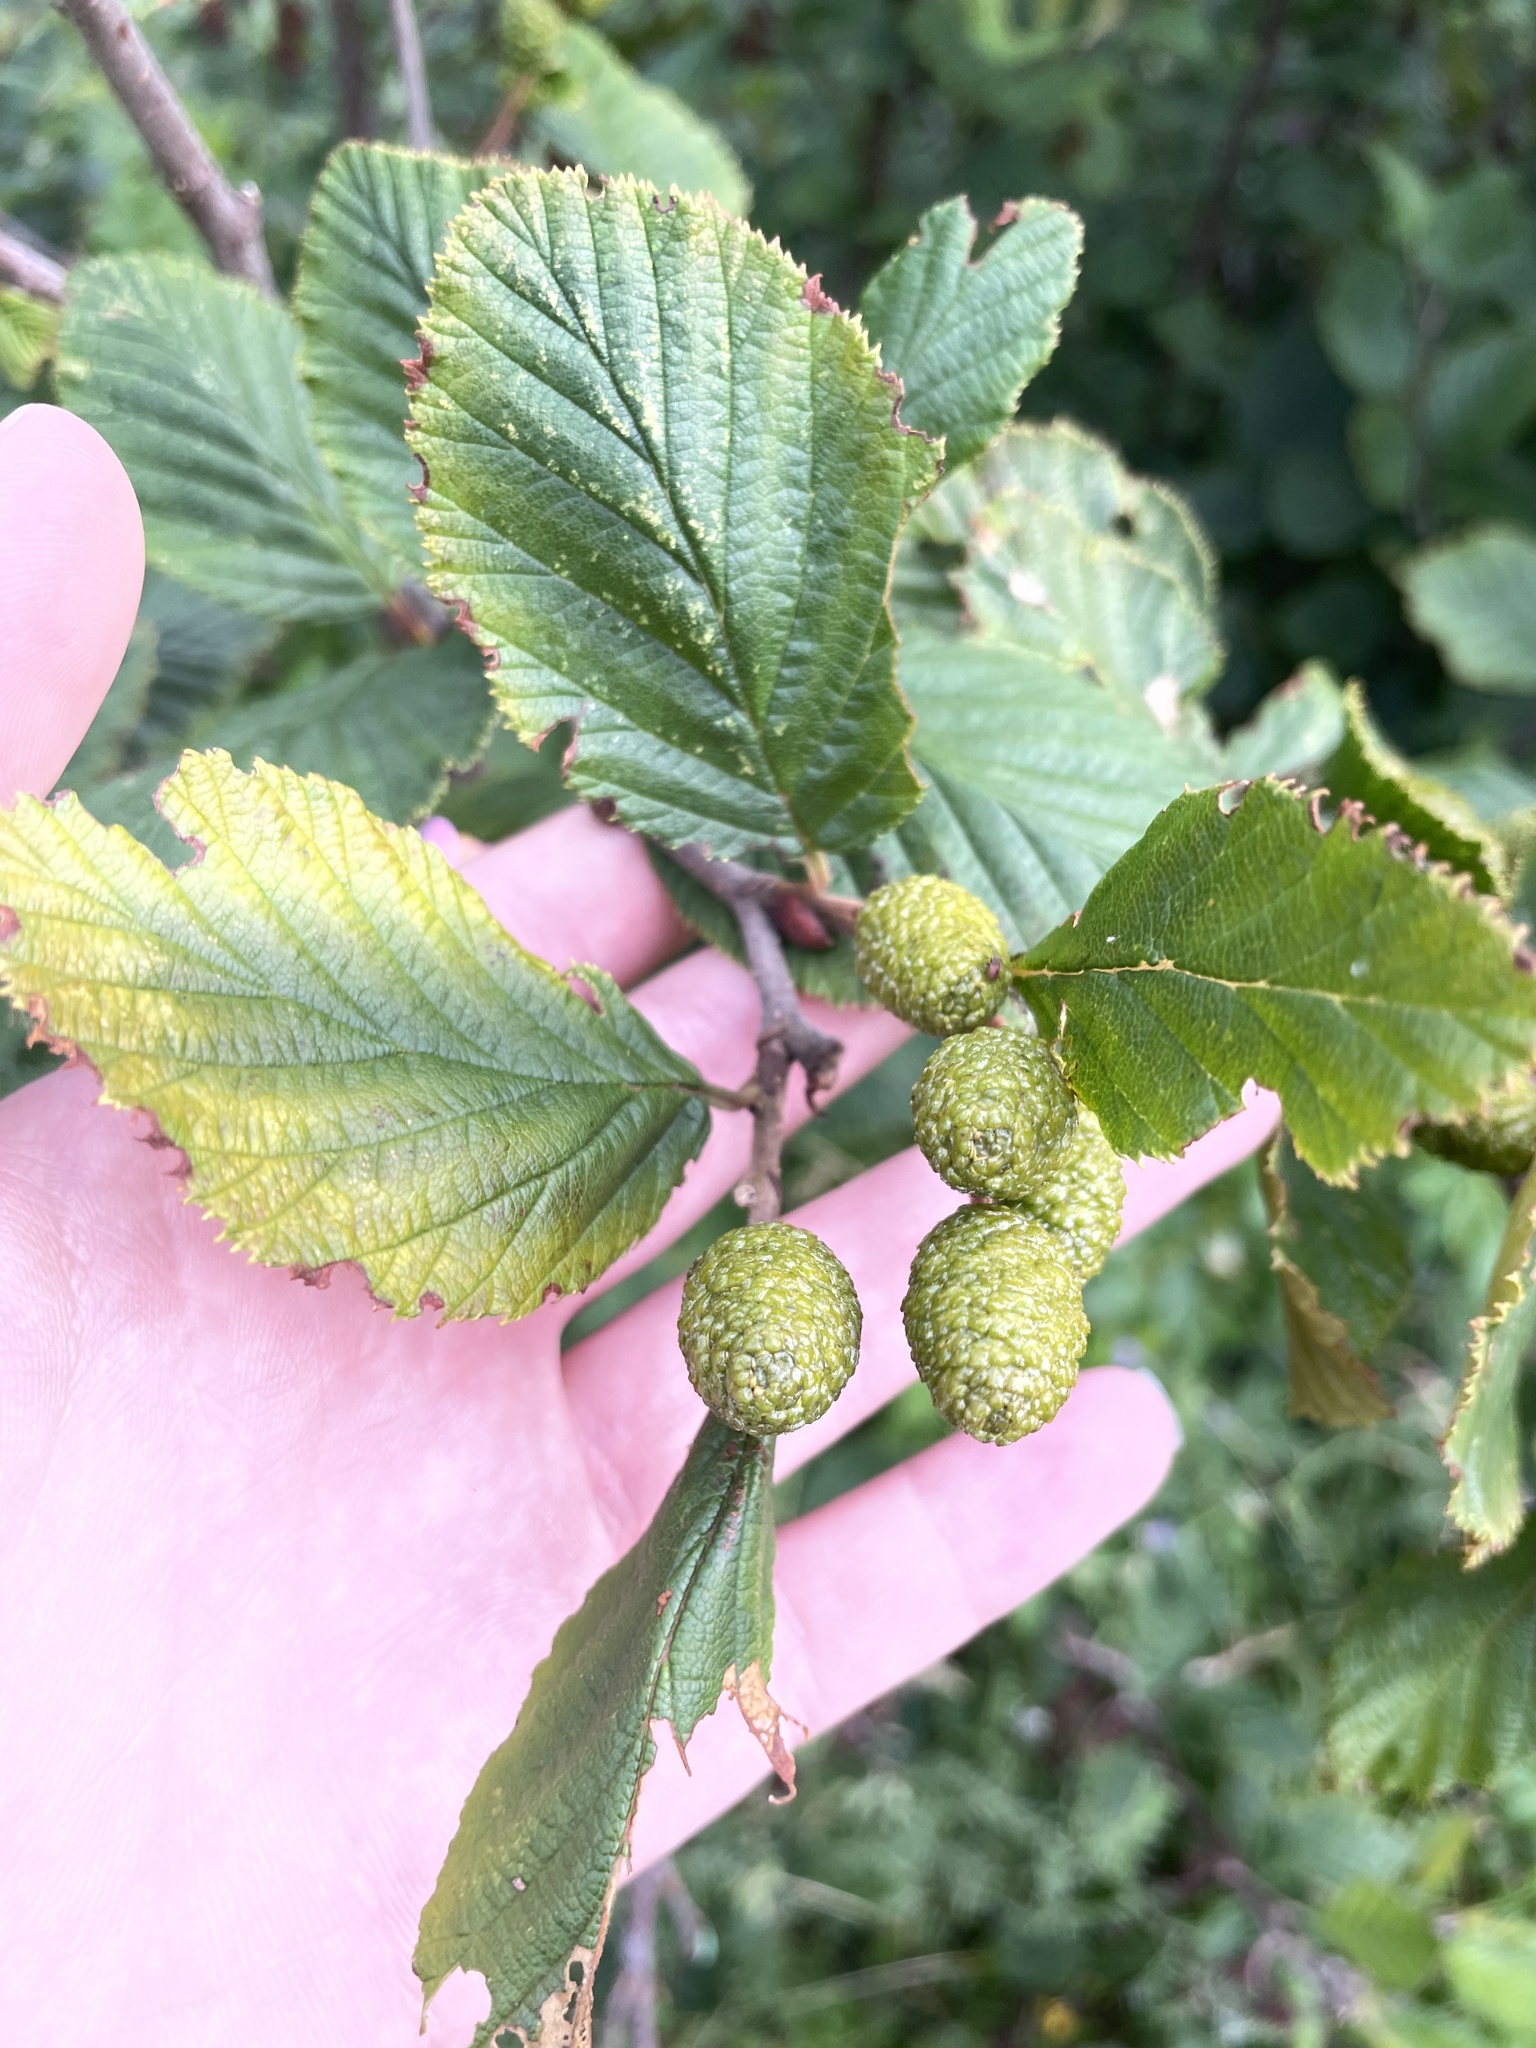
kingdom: Plantae
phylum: Tracheophyta
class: Magnoliopsida
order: Fagales
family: Betulaceae
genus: Alnus
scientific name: Alnus alnobetula
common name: Green alder
